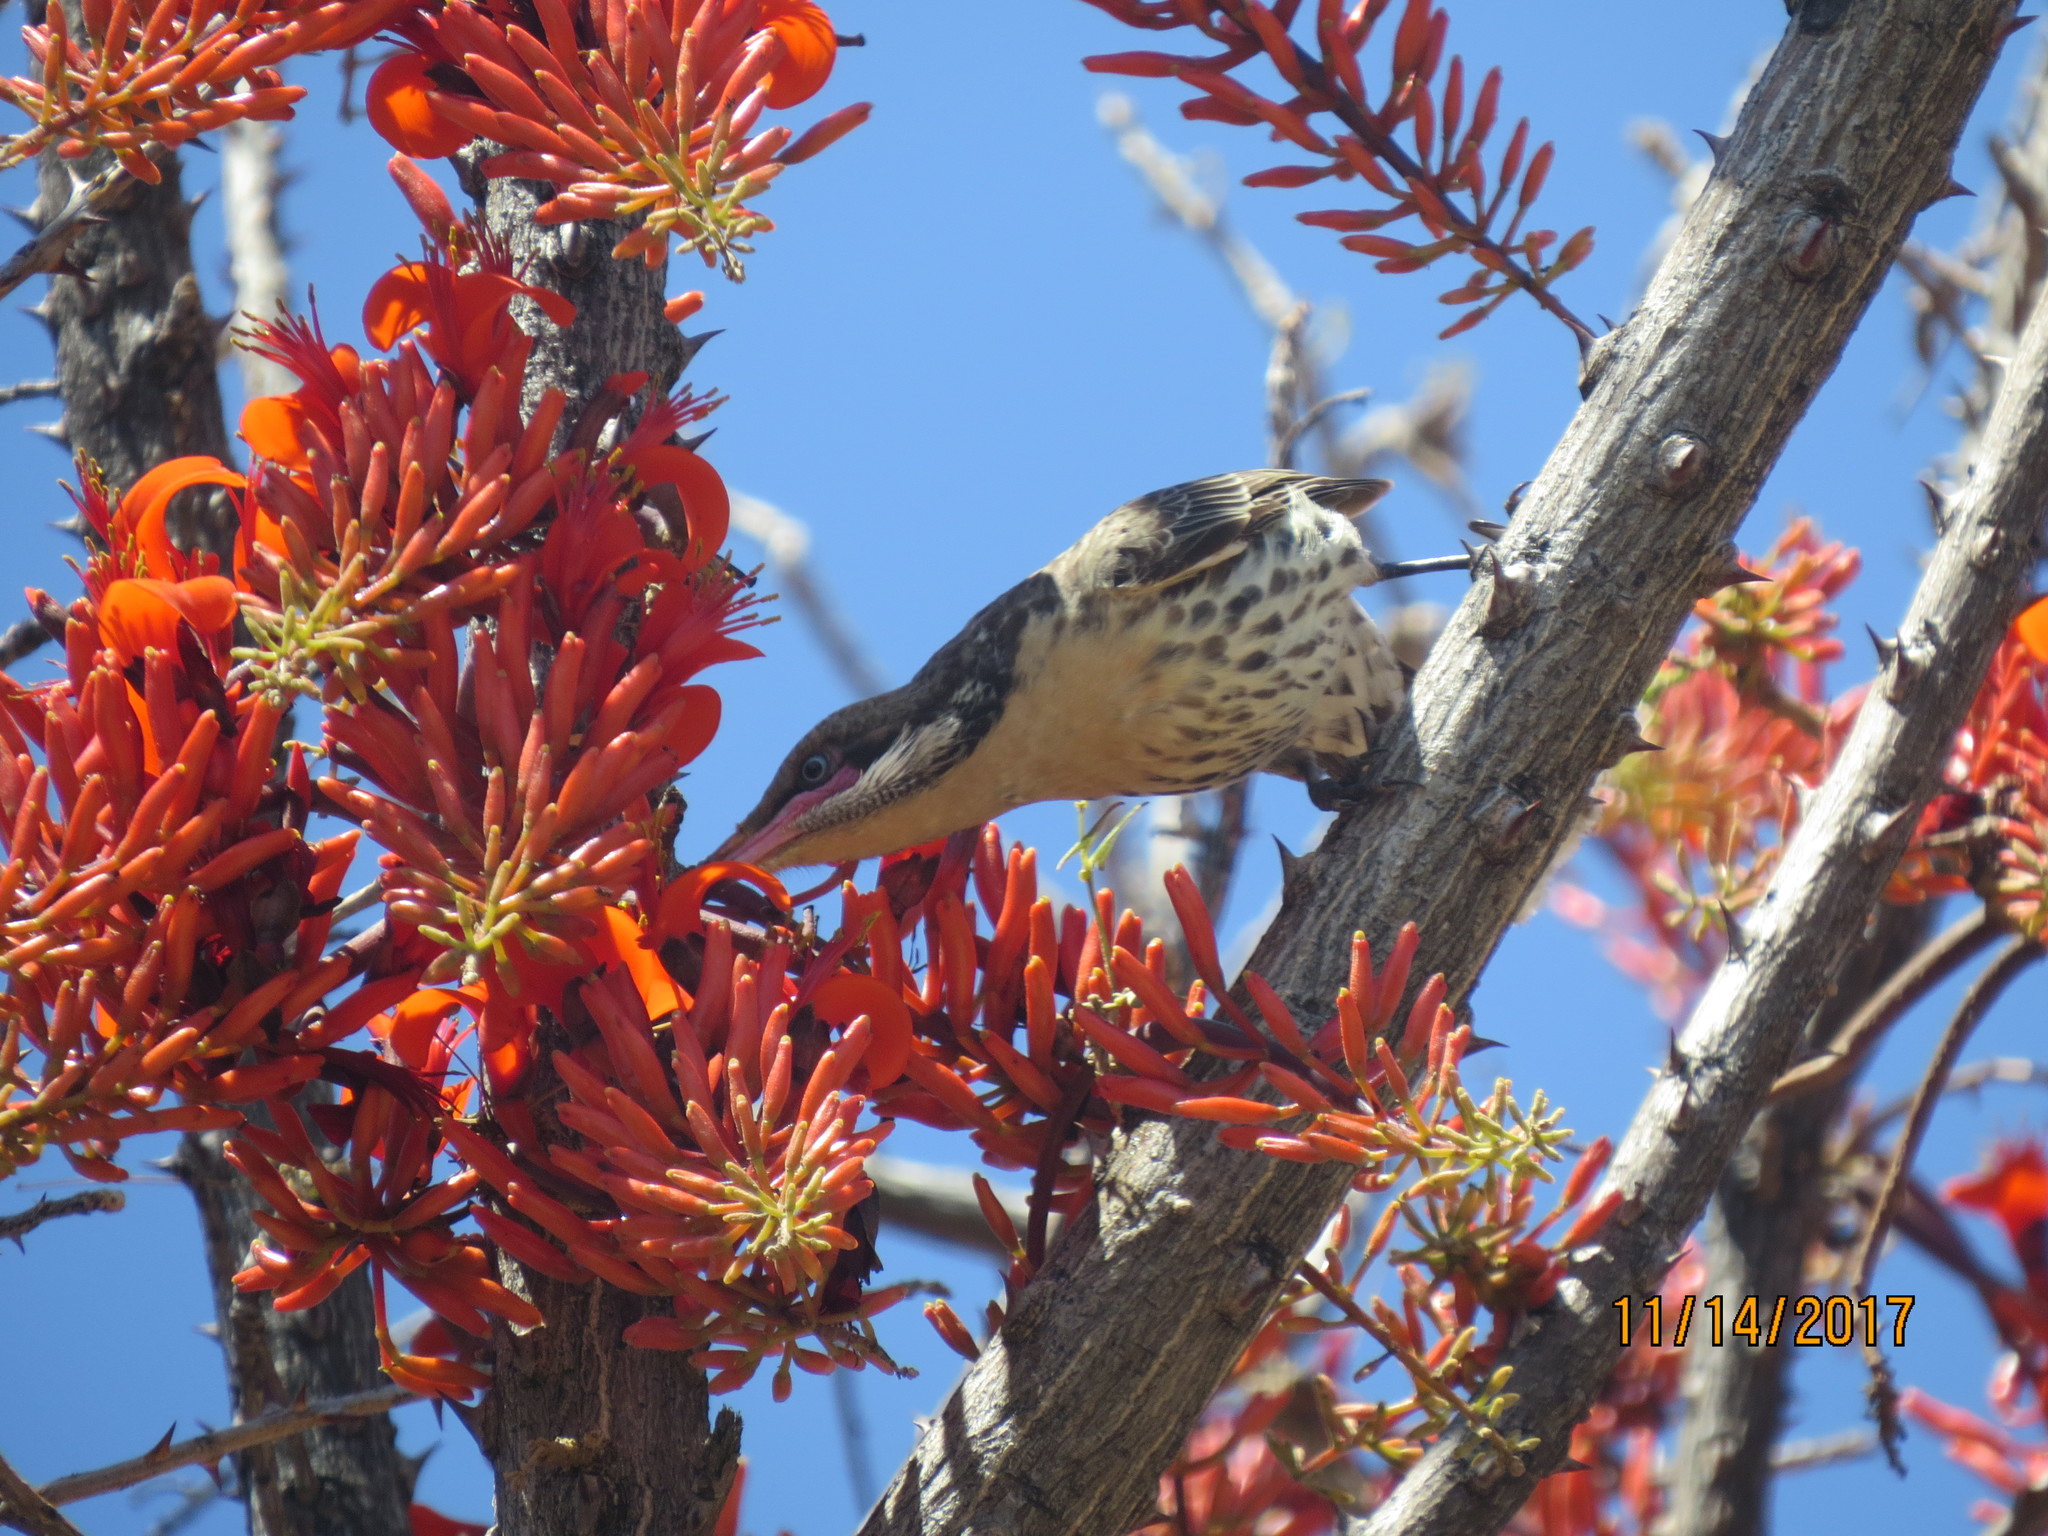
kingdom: Animalia
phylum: Chordata
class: Aves
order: Passeriformes
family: Meliphagidae
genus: Acanthagenys
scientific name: Acanthagenys rufogularis
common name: Spiny-cheeked honeyeater
